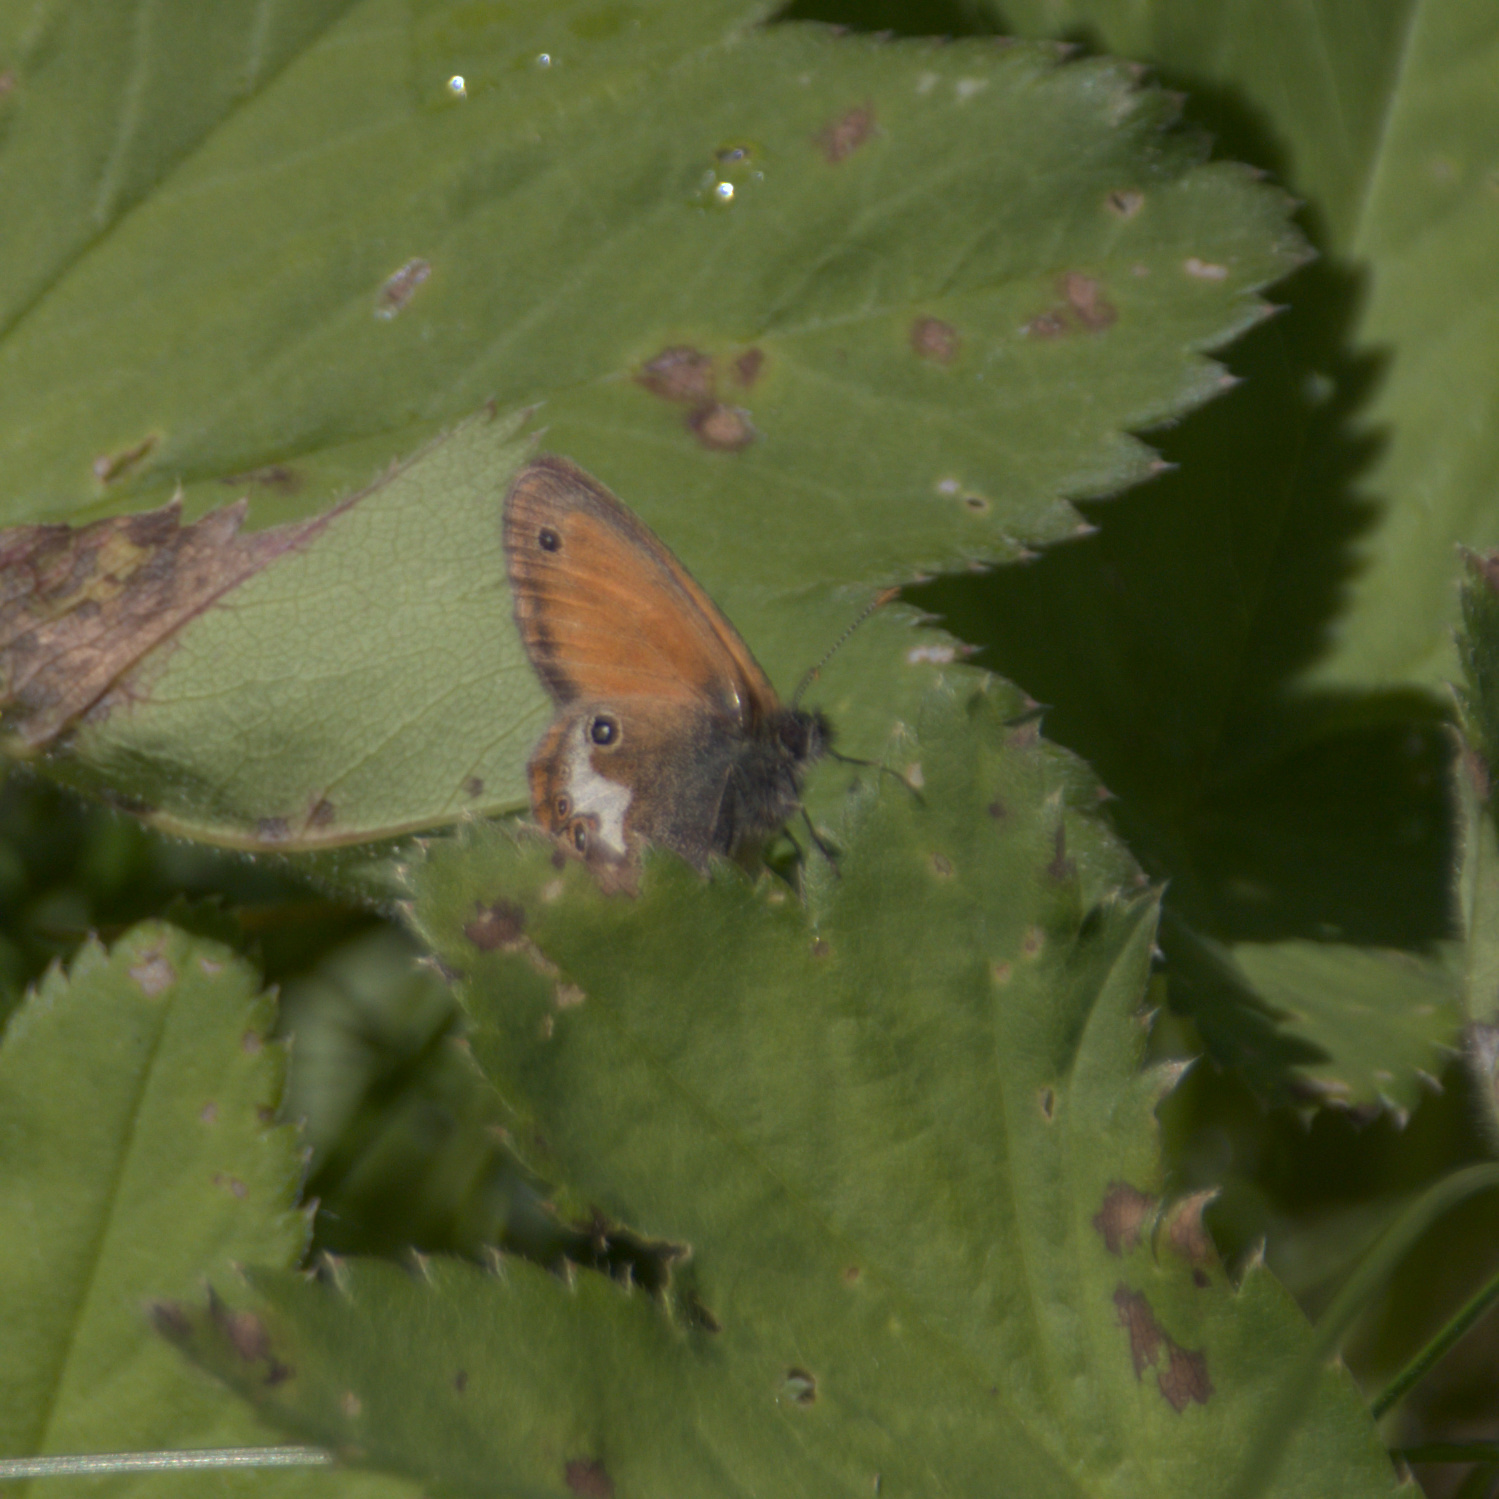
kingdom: Animalia
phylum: Arthropoda
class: Insecta
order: Lepidoptera
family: Nymphalidae
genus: Coenonympha
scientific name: Coenonympha arcania
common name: Pearly heath
